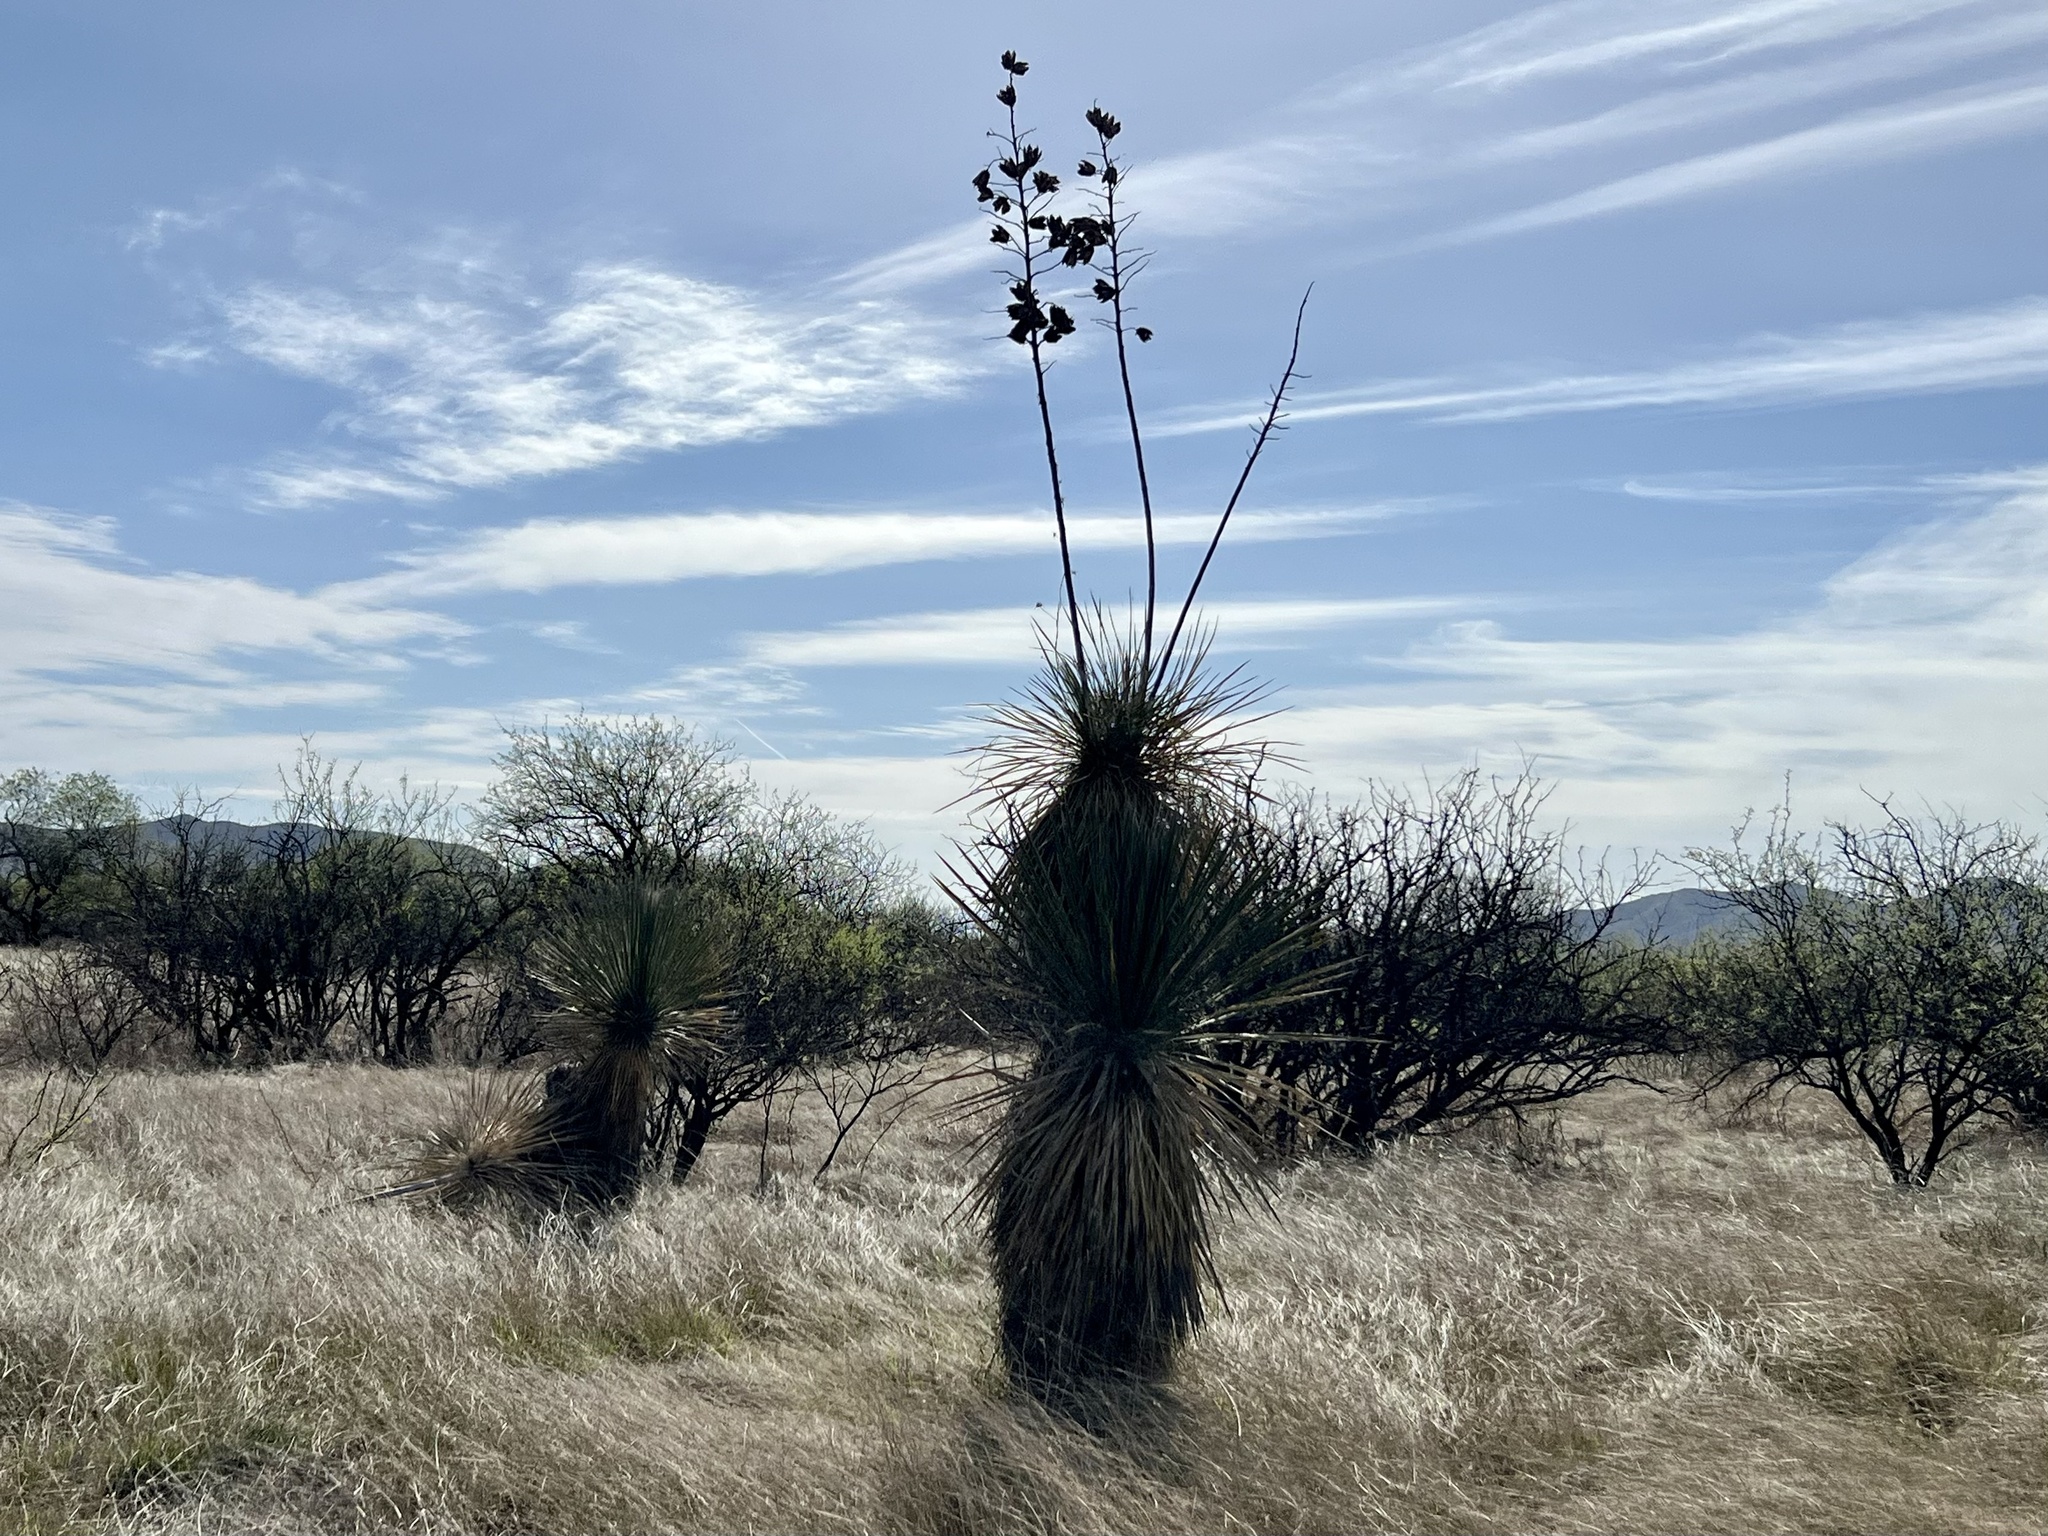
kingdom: Plantae
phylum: Tracheophyta
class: Liliopsida
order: Asparagales
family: Asparagaceae
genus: Yucca
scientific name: Yucca elata
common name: Palmella
